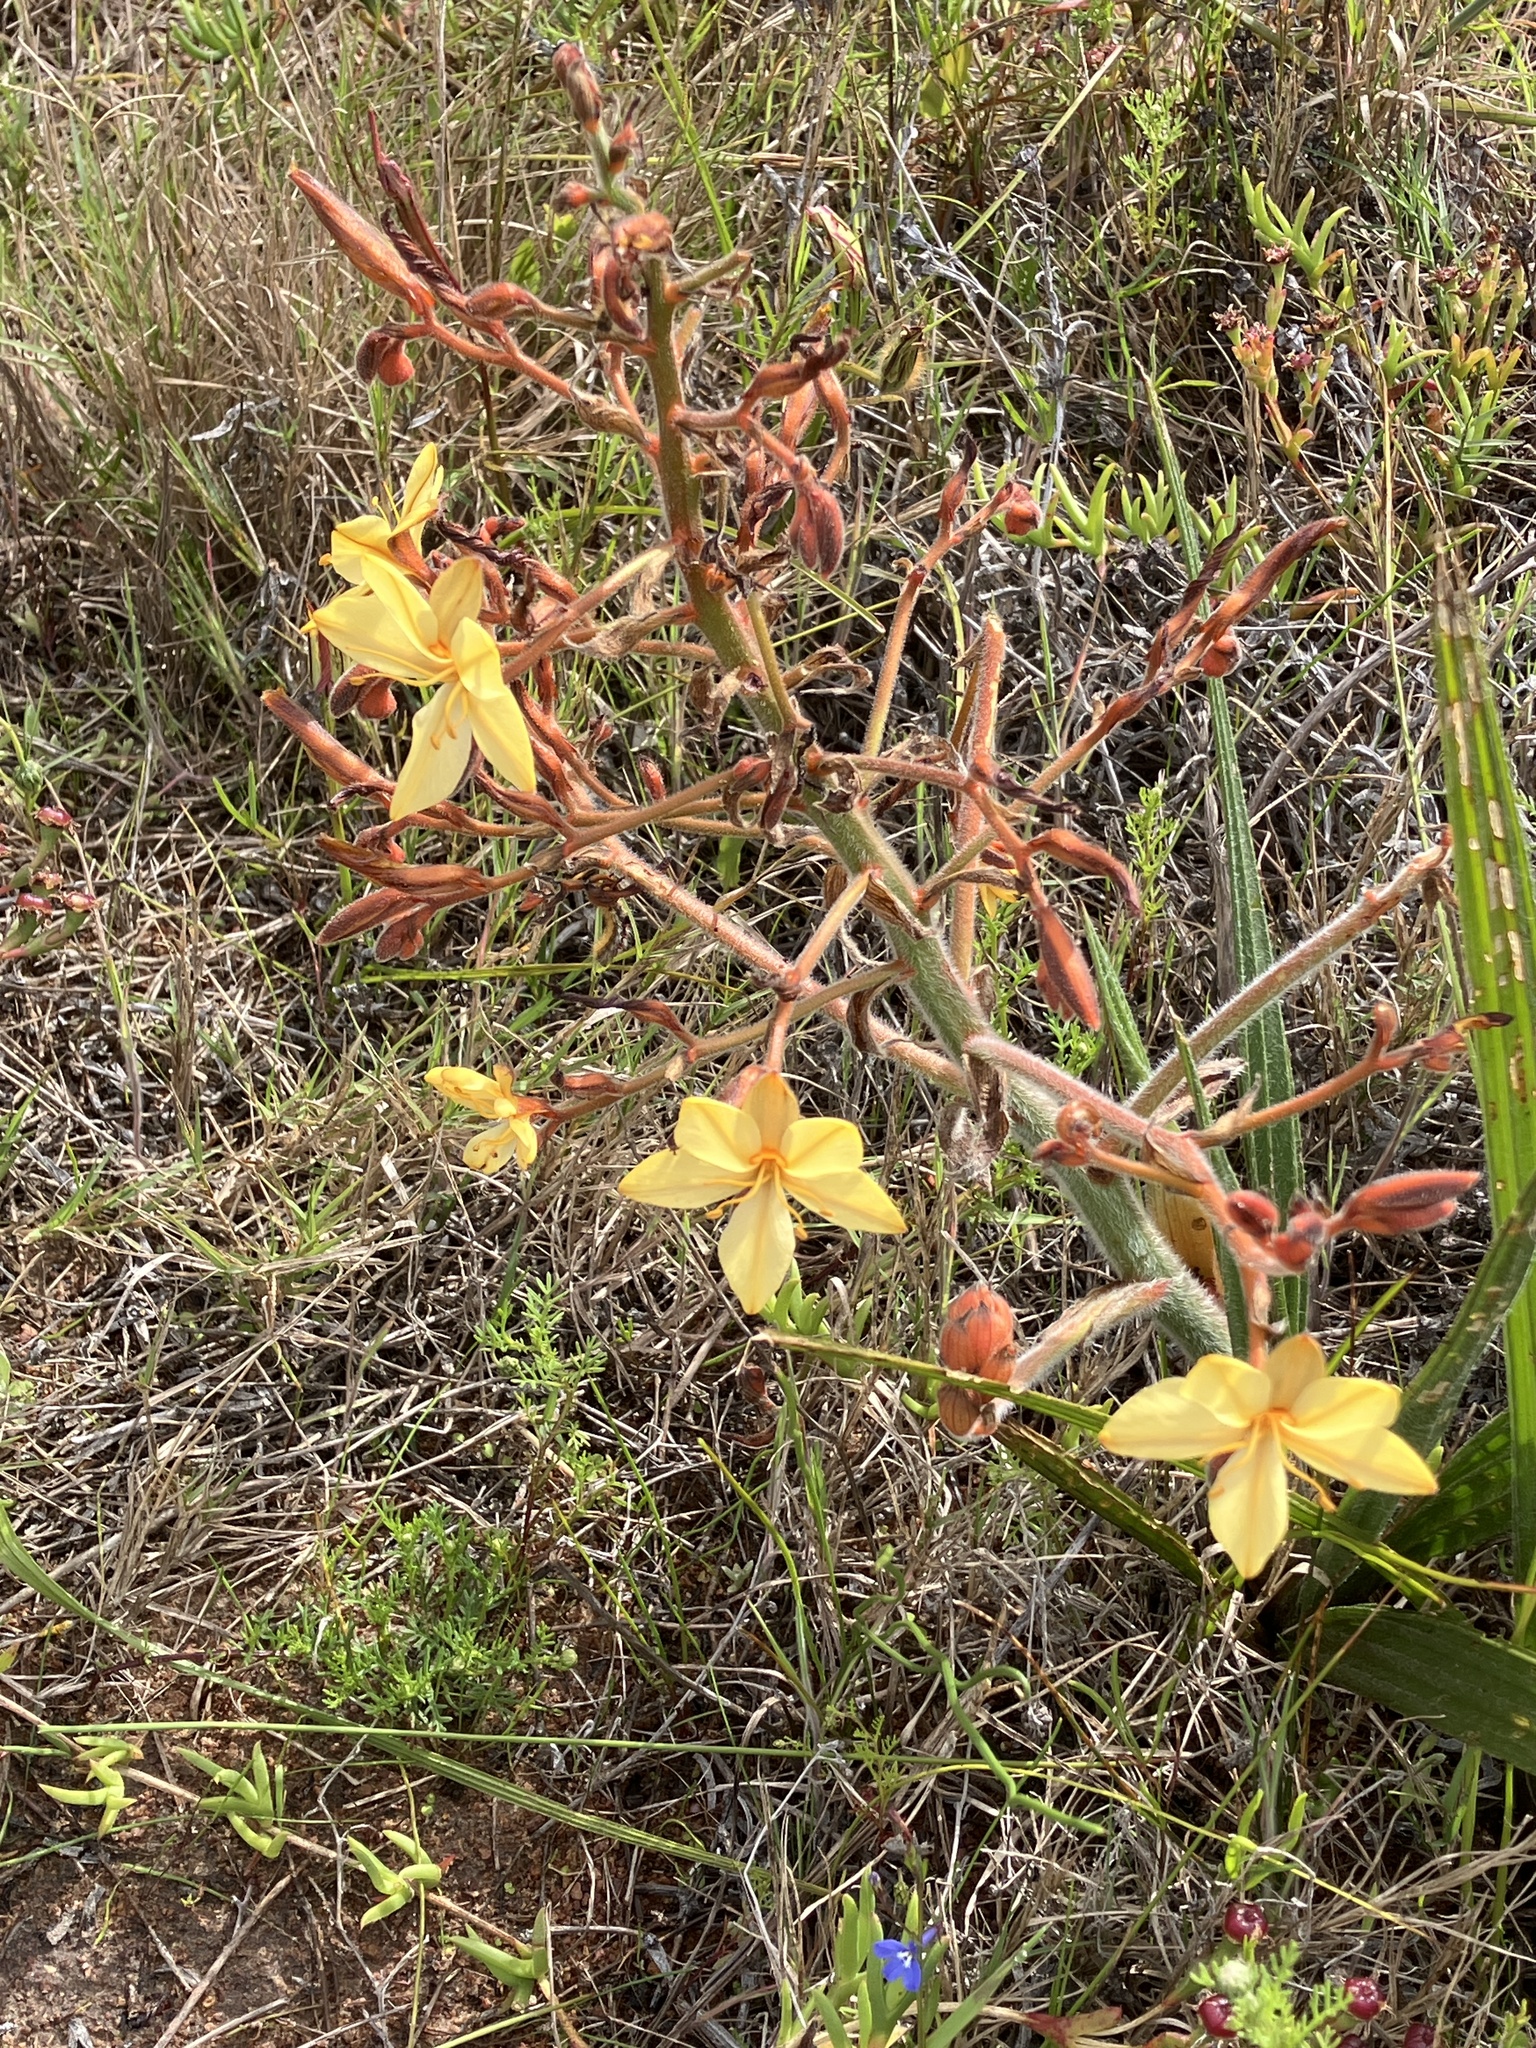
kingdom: Plantae
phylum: Tracheophyta
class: Liliopsida
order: Commelinales
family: Haemodoraceae
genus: Wachendorfia
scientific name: Wachendorfia paniculata
